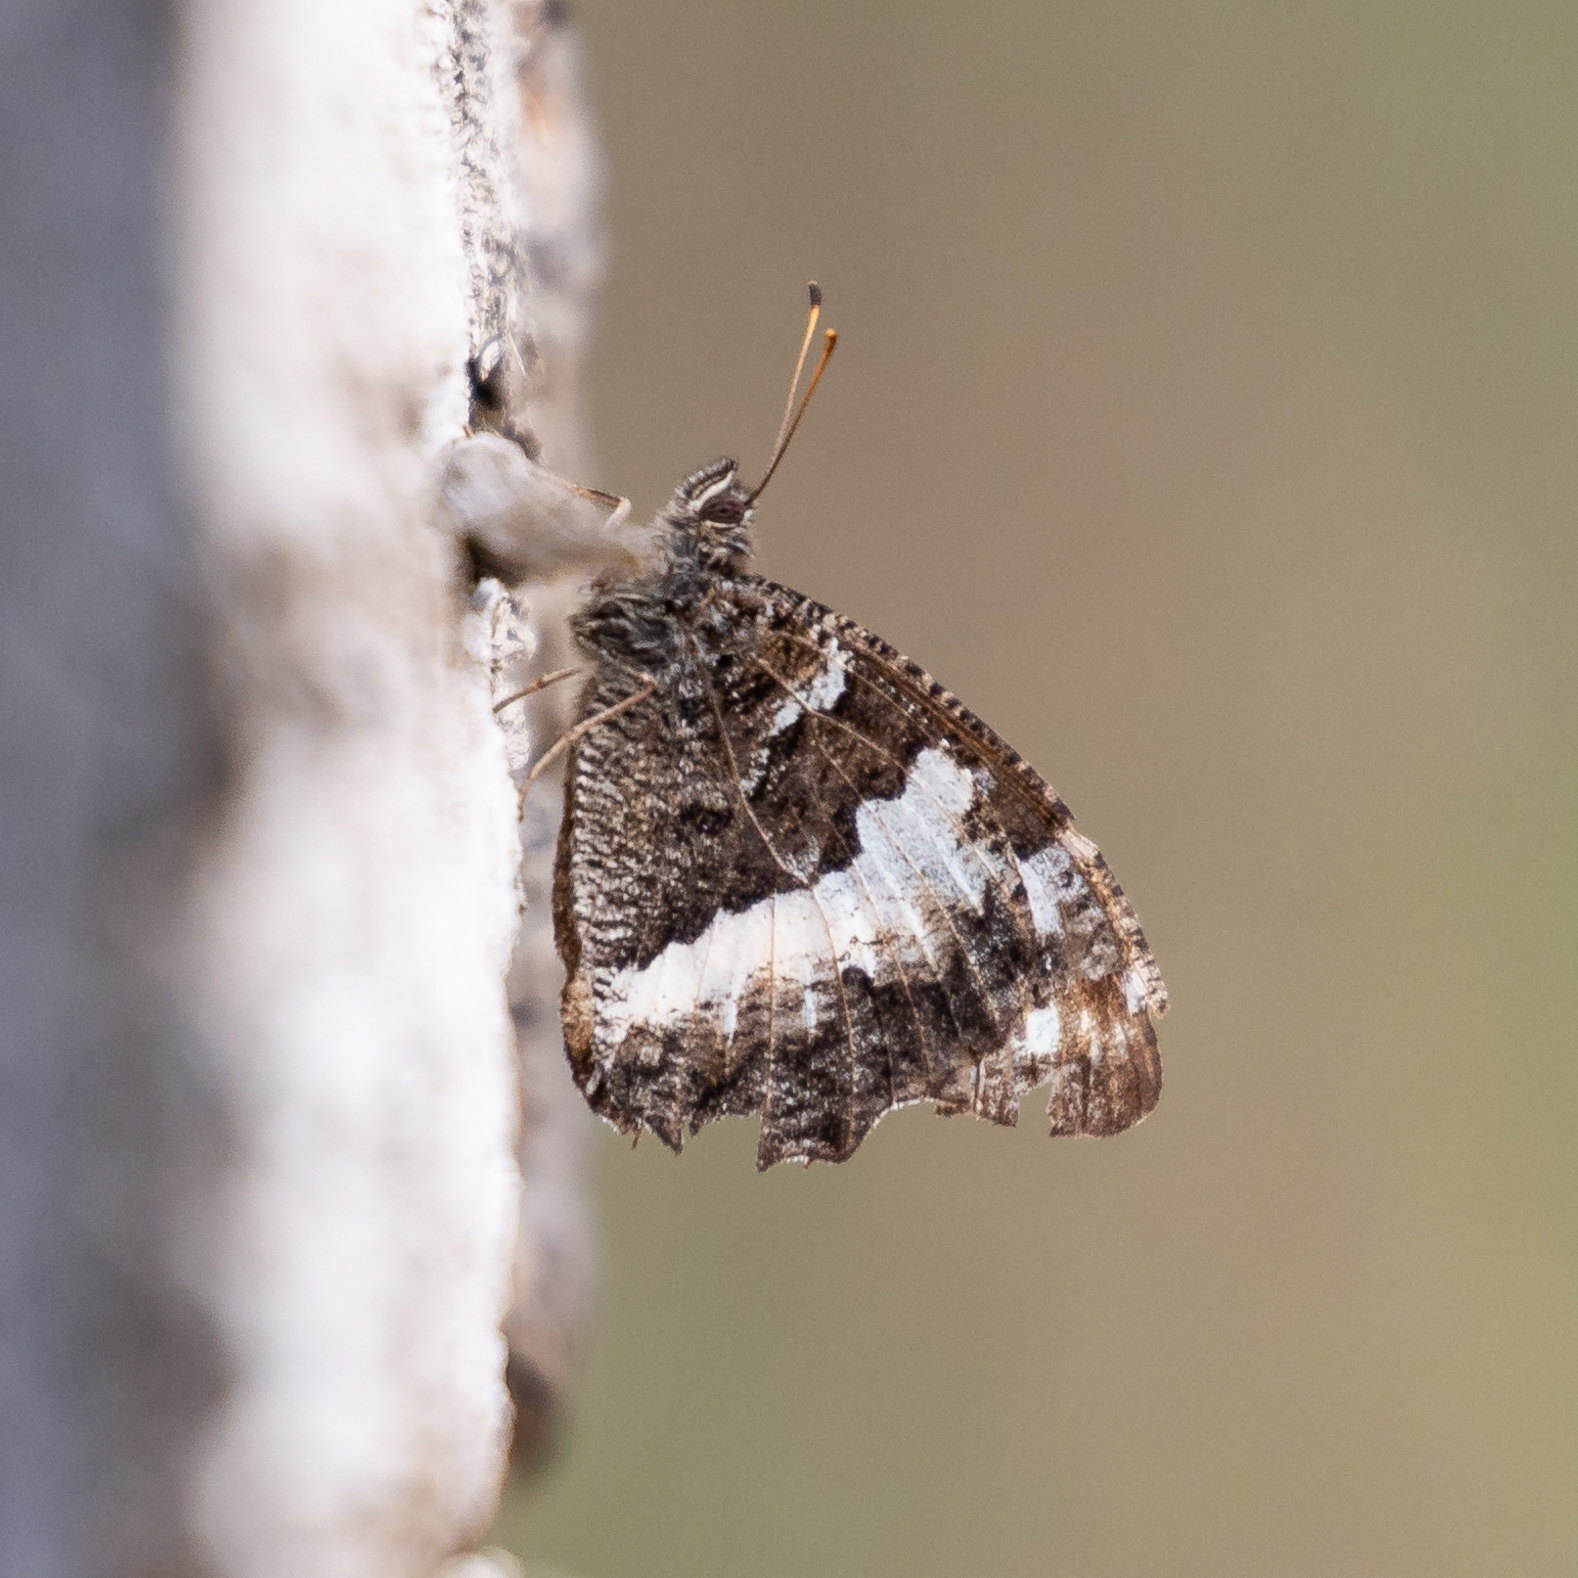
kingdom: Animalia
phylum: Arthropoda
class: Insecta
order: Lepidoptera
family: Lycaenidae
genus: Loweia
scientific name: Loweia tityrus
